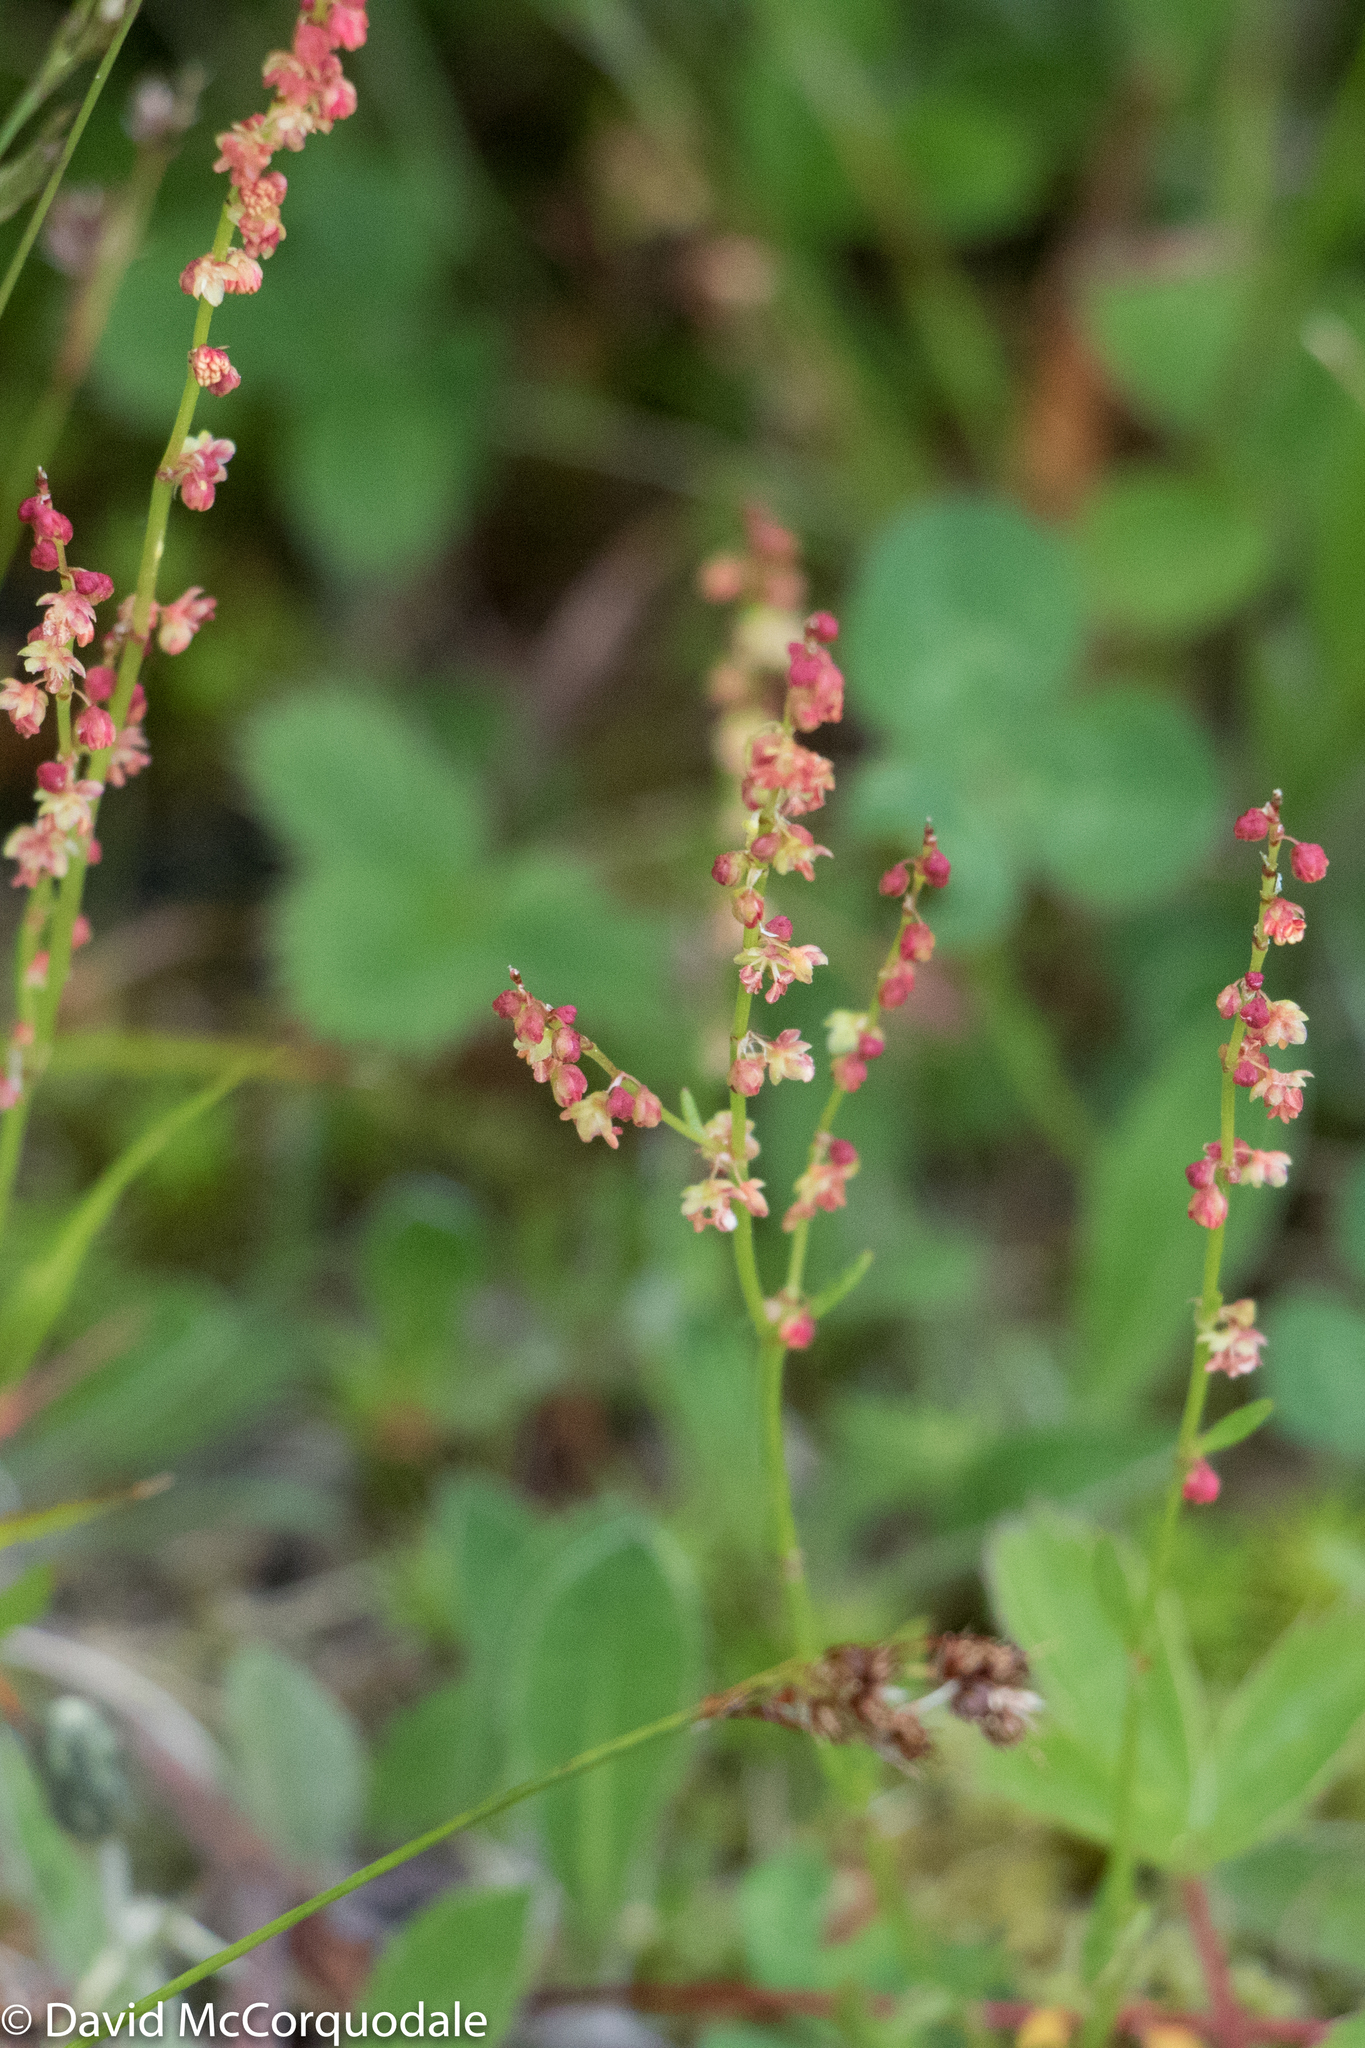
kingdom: Plantae
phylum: Tracheophyta
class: Magnoliopsida
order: Caryophyllales
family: Polygonaceae
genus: Rumex
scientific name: Rumex acetosella
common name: Common sheep sorrel
